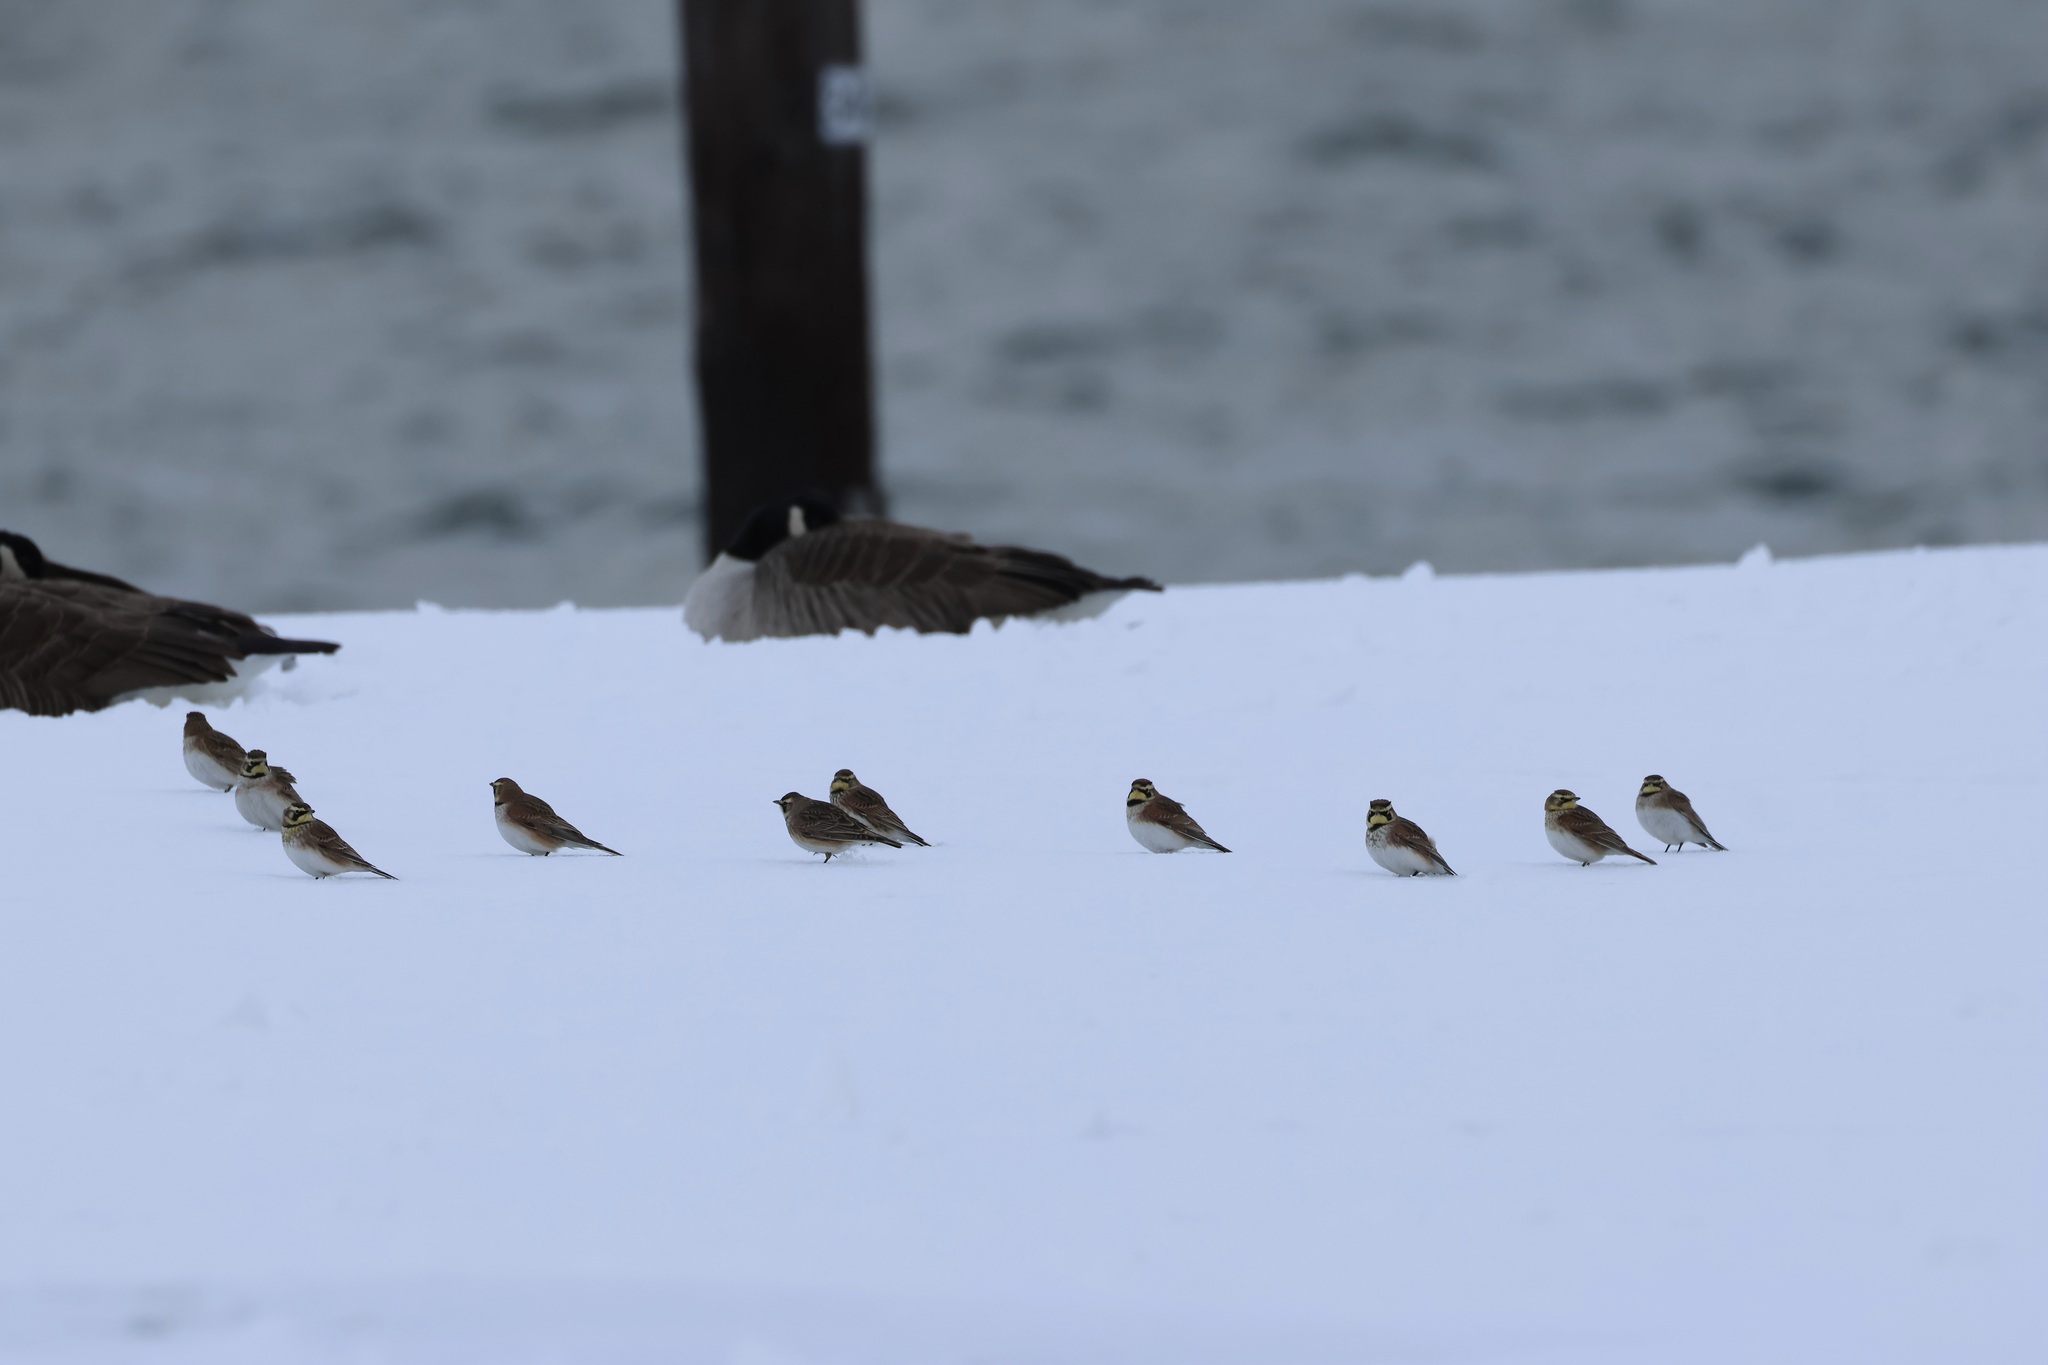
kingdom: Animalia
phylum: Chordata
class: Aves
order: Passeriformes
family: Alaudidae
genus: Eremophila
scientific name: Eremophila alpestris
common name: Horned lark
